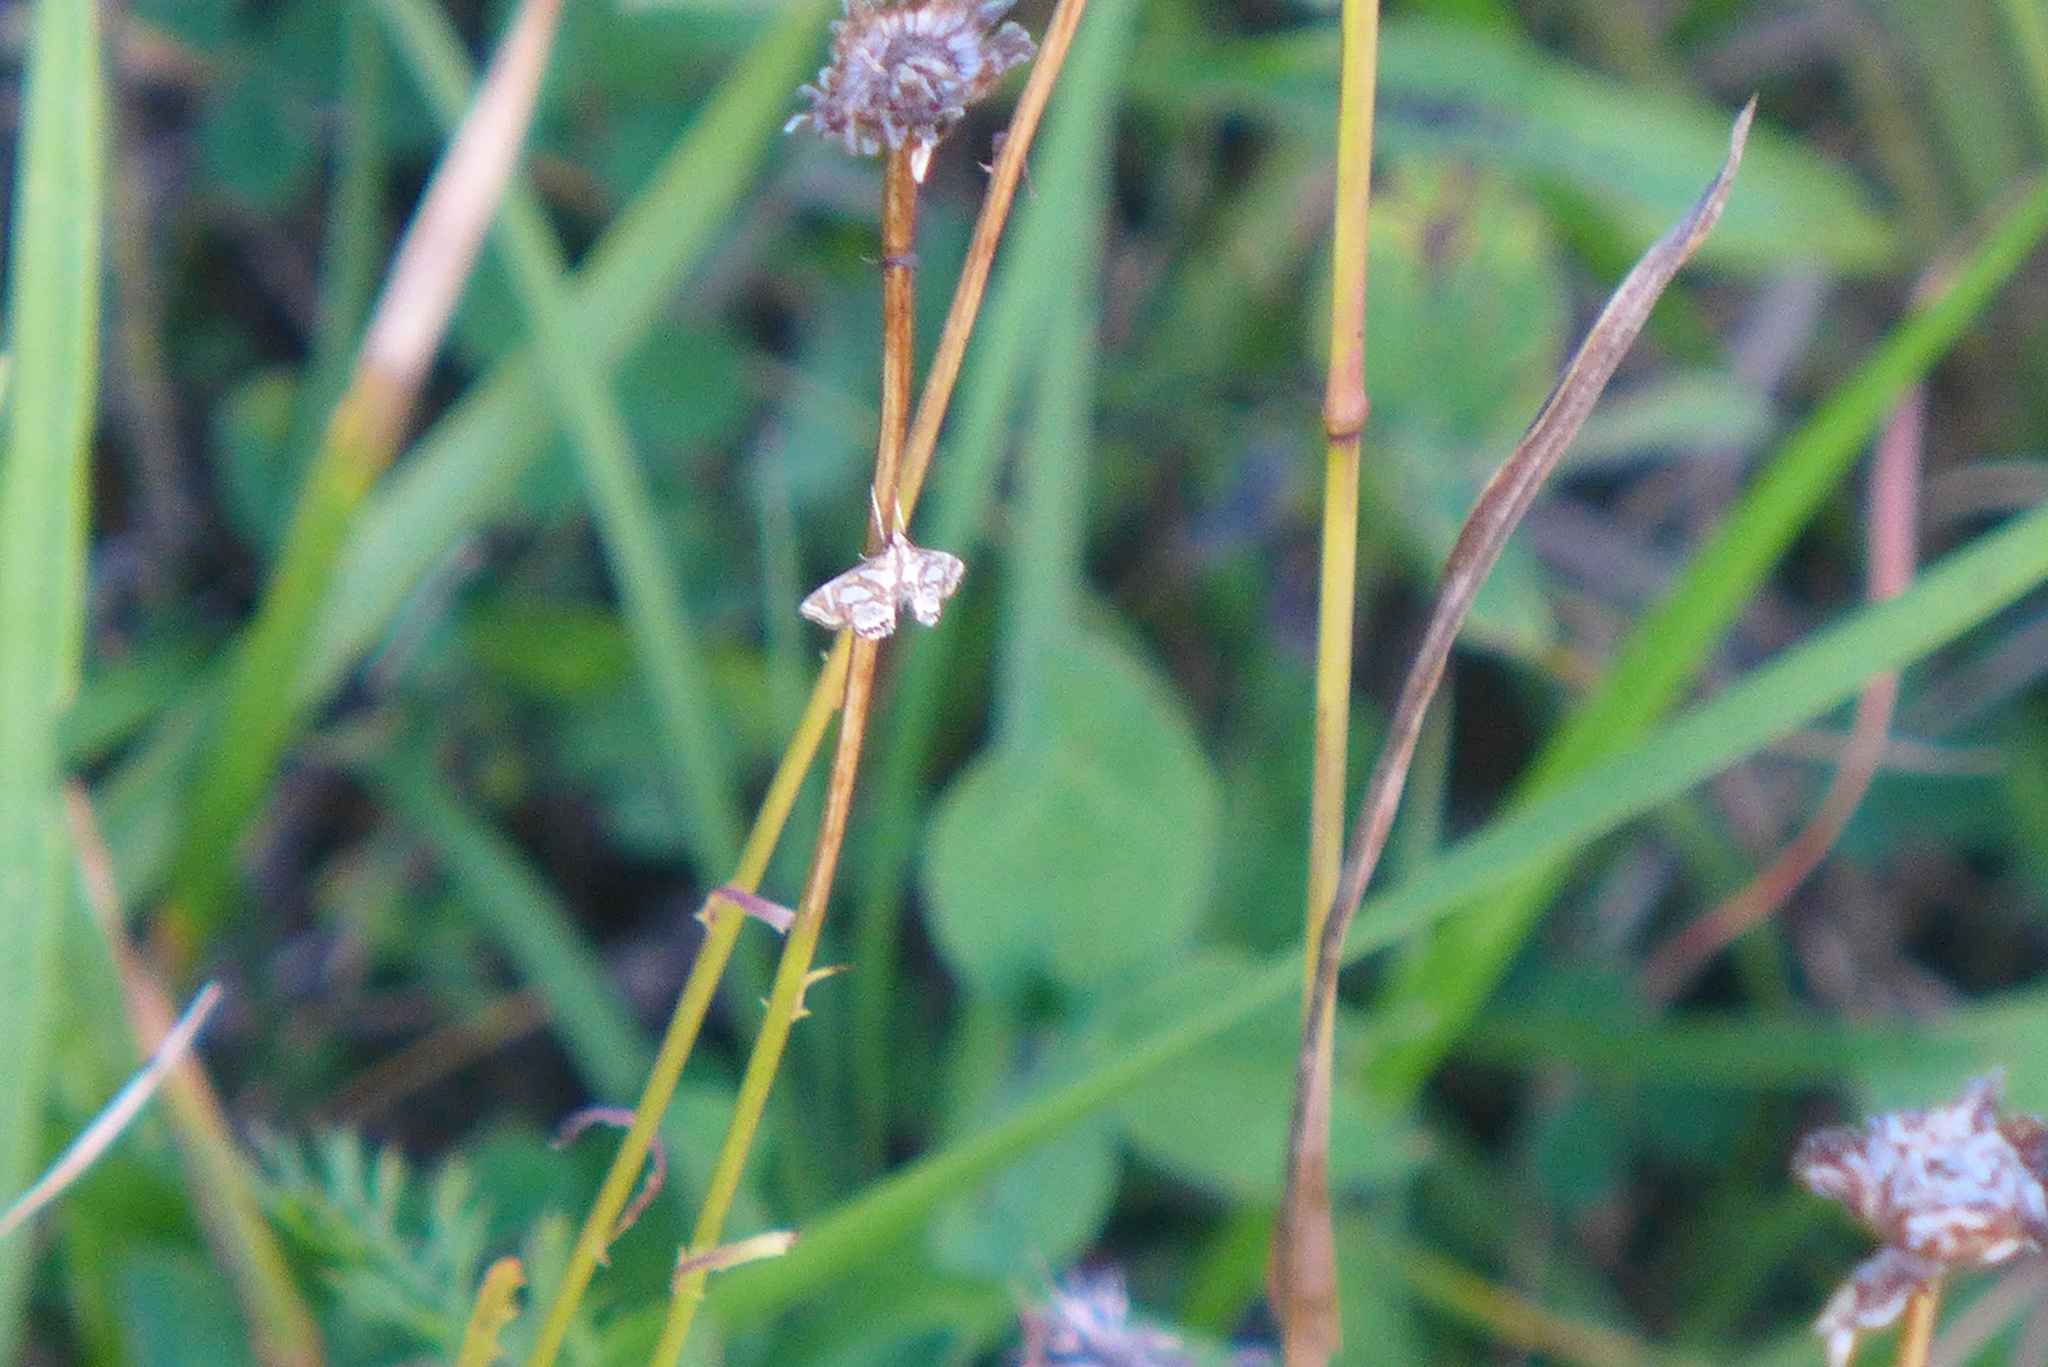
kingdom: Animalia
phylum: Arthropoda
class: Insecta
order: Lepidoptera
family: Crambidae
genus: Chrysendeton
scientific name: Chrysendeton medicinalis
